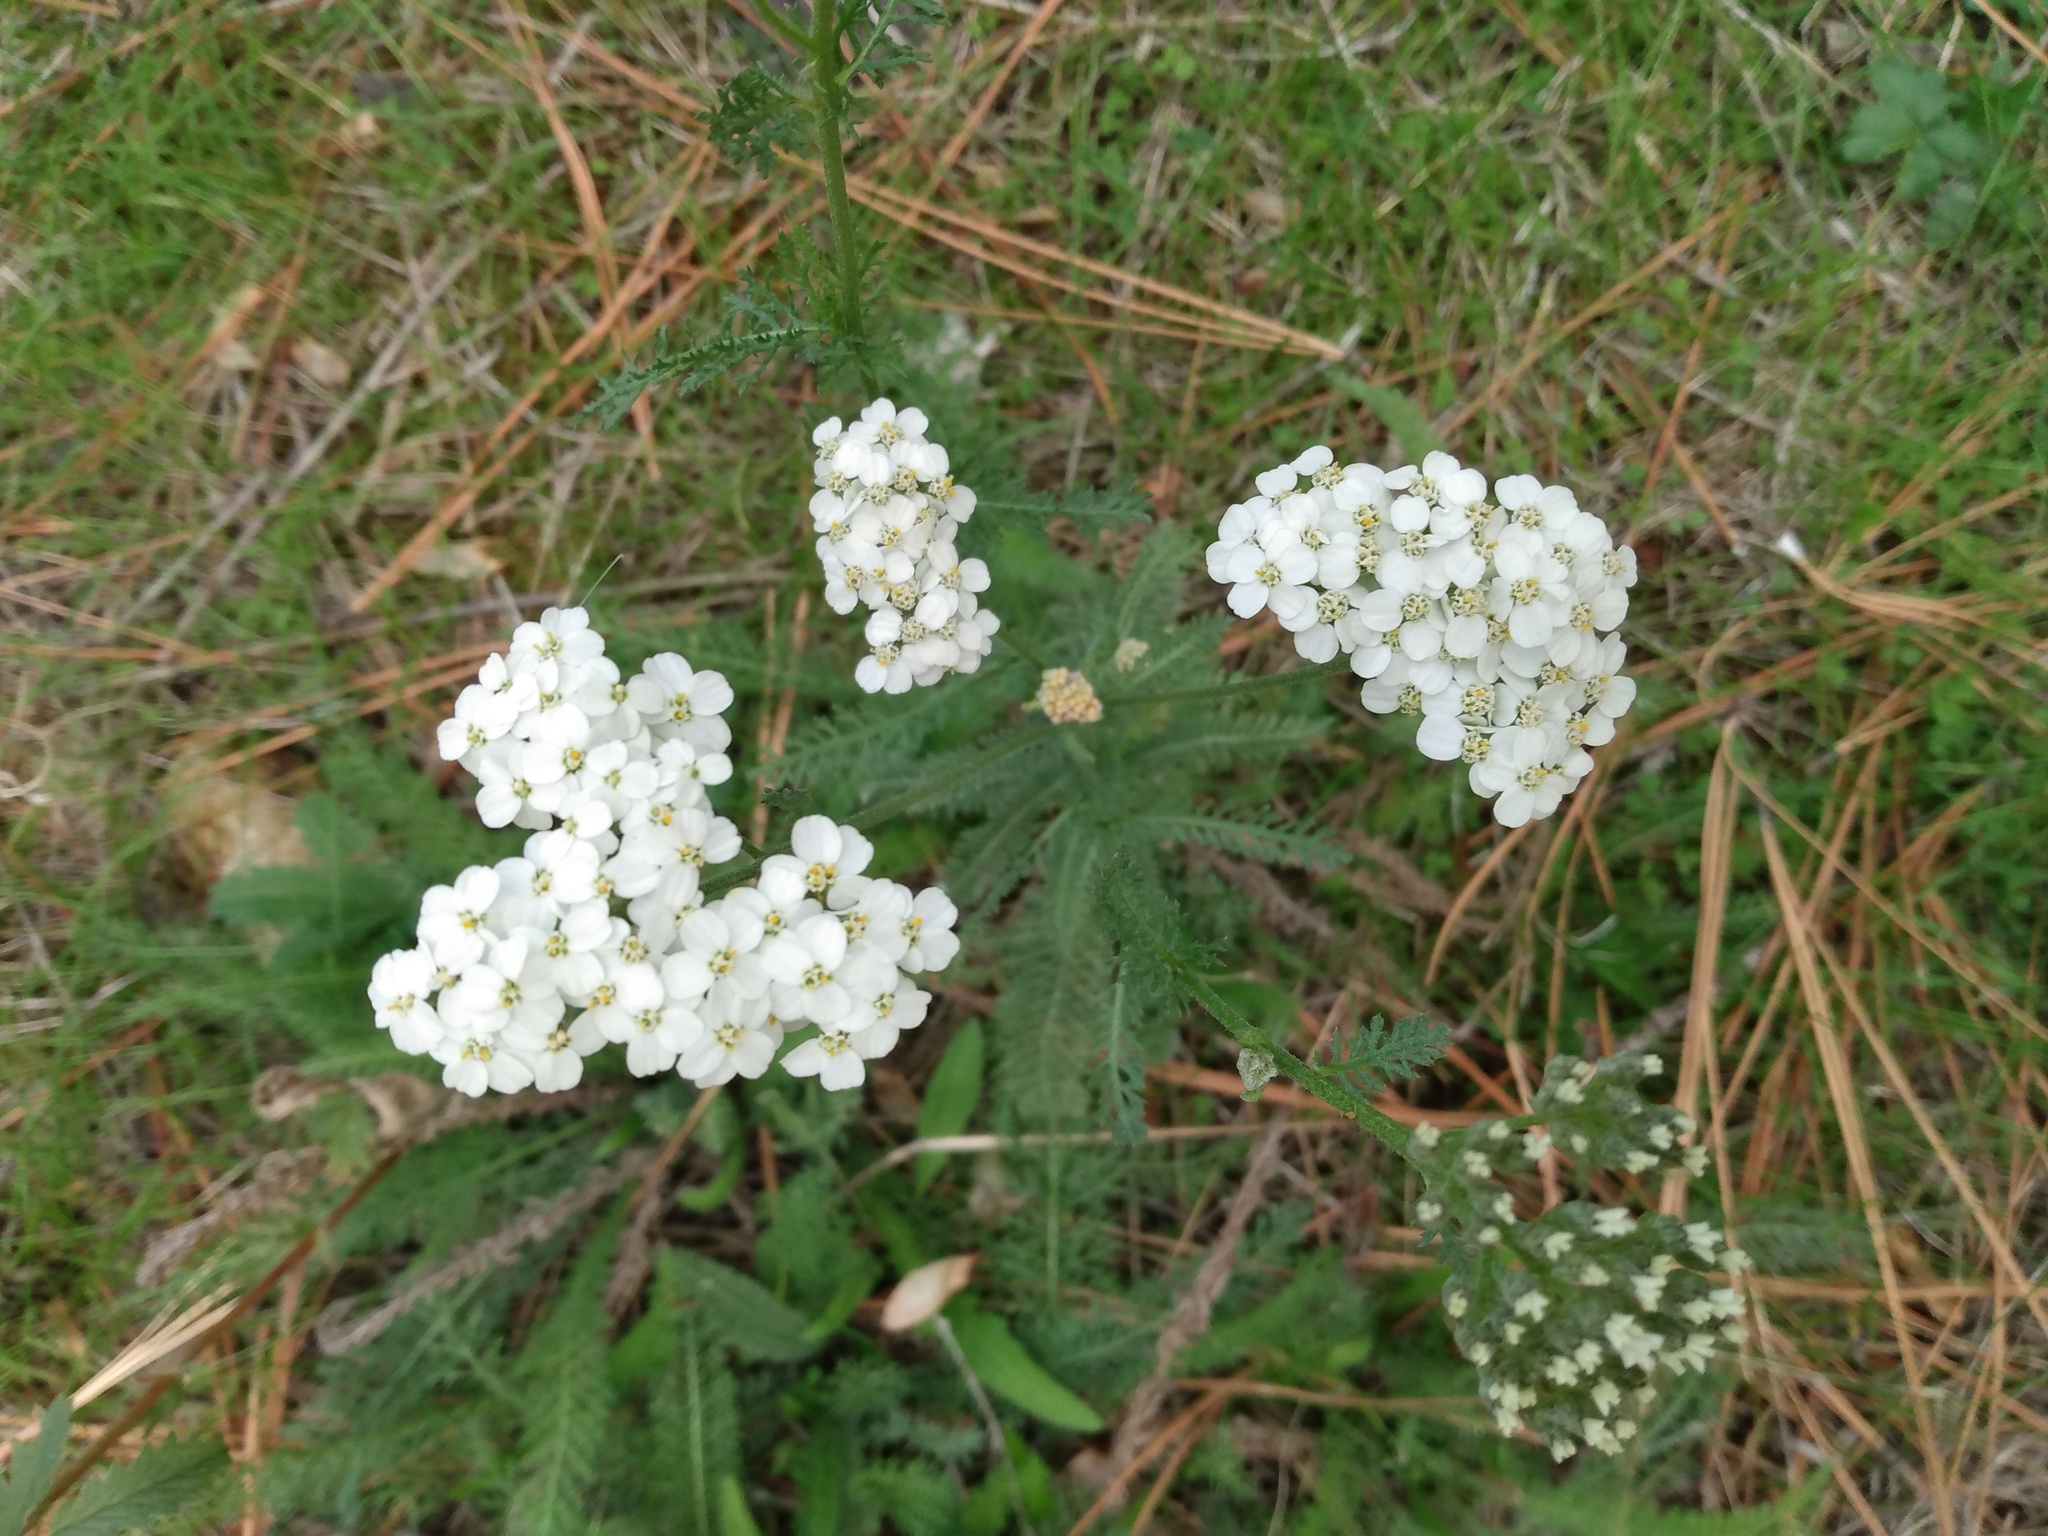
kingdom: Plantae
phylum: Tracheophyta
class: Magnoliopsida
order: Asterales
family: Asteraceae
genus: Achillea
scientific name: Achillea millefolium
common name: Yarrow
